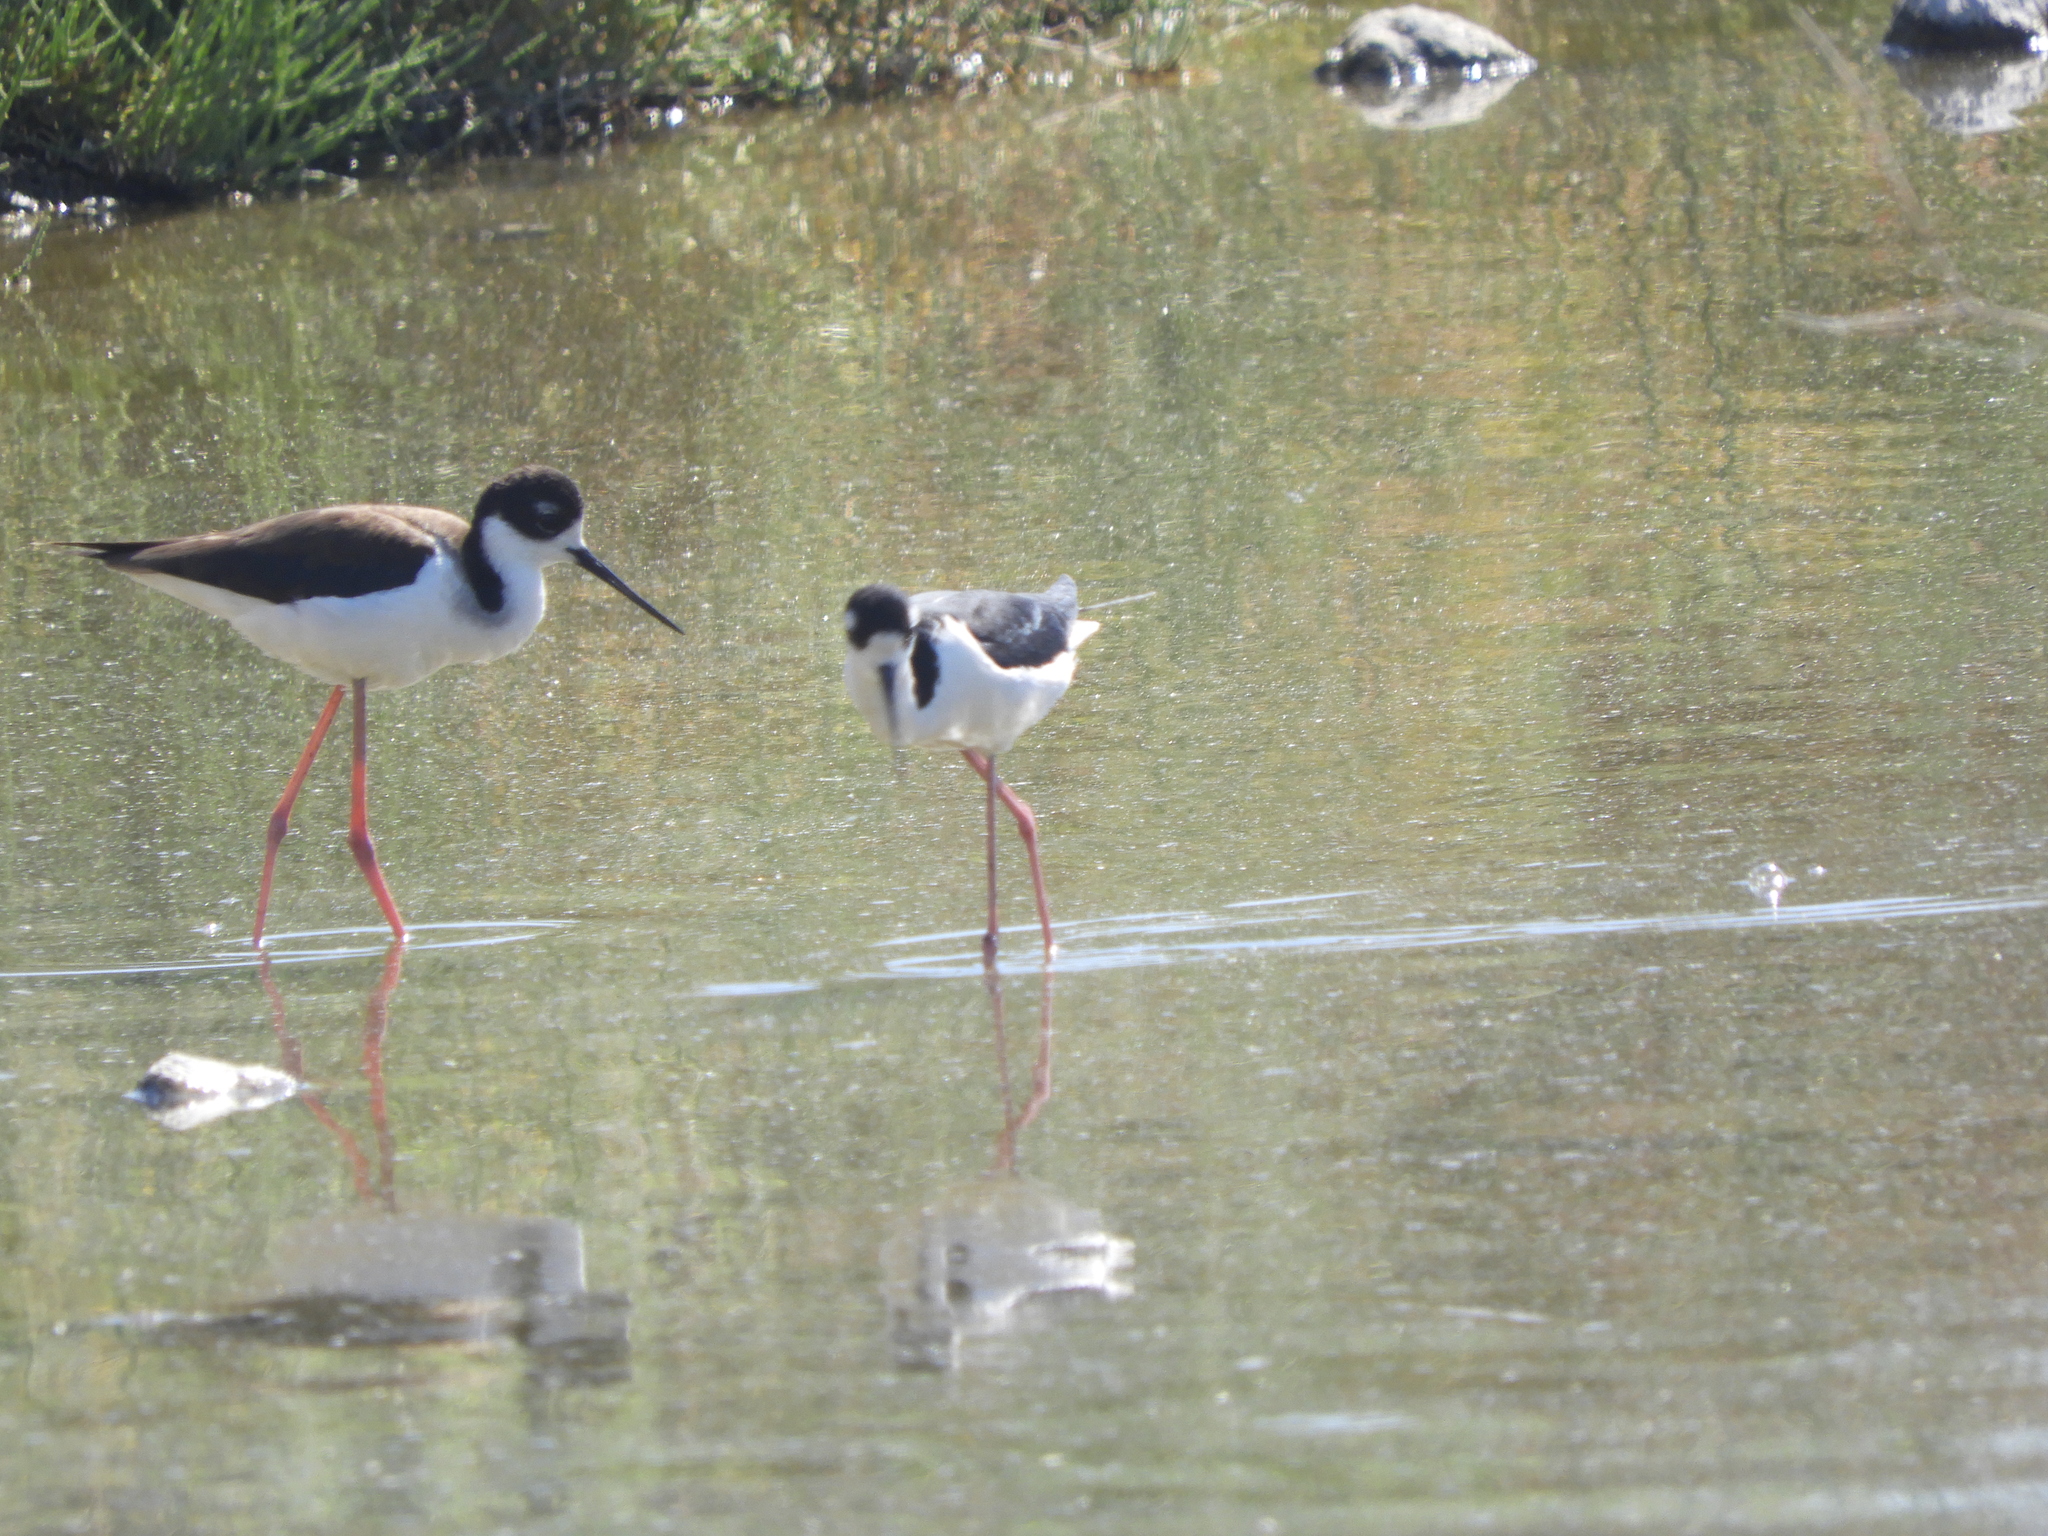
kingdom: Animalia
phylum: Chordata
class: Aves
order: Charadriiformes
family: Recurvirostridae
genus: Himantopus
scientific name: Himantopus mexicanus
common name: Black-necked stilt
